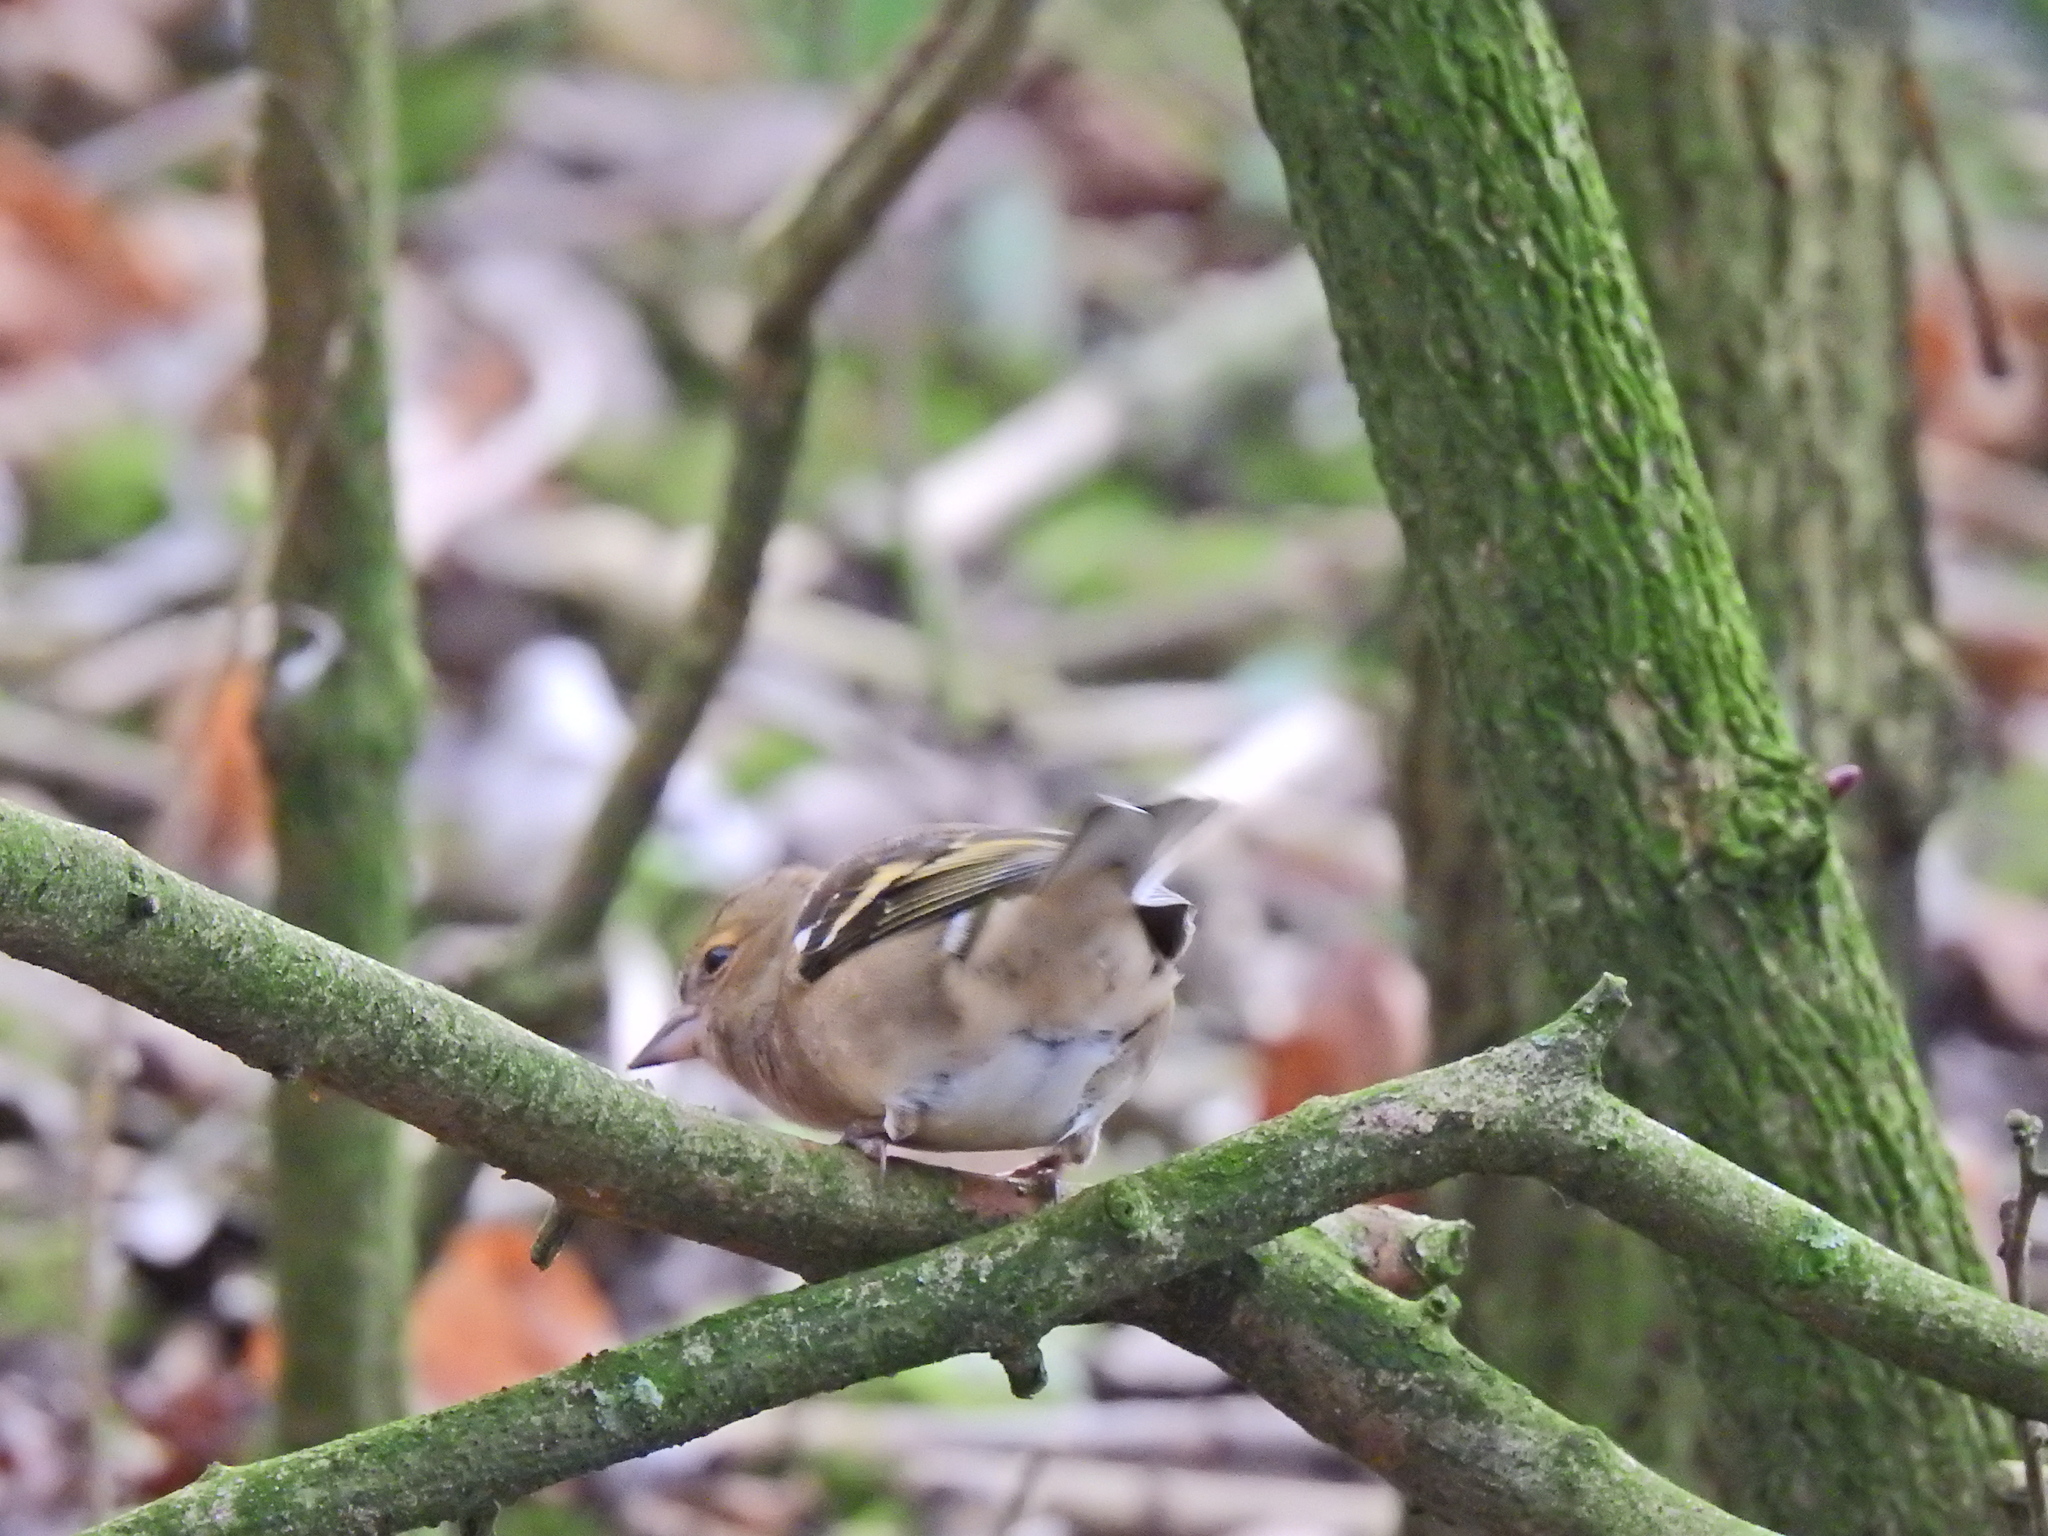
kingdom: Animalia
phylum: Chordata
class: Aves
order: Passeriformes
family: Fringillidae
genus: Fringilla
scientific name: Fringilla coelebs
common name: Common chaffinch
